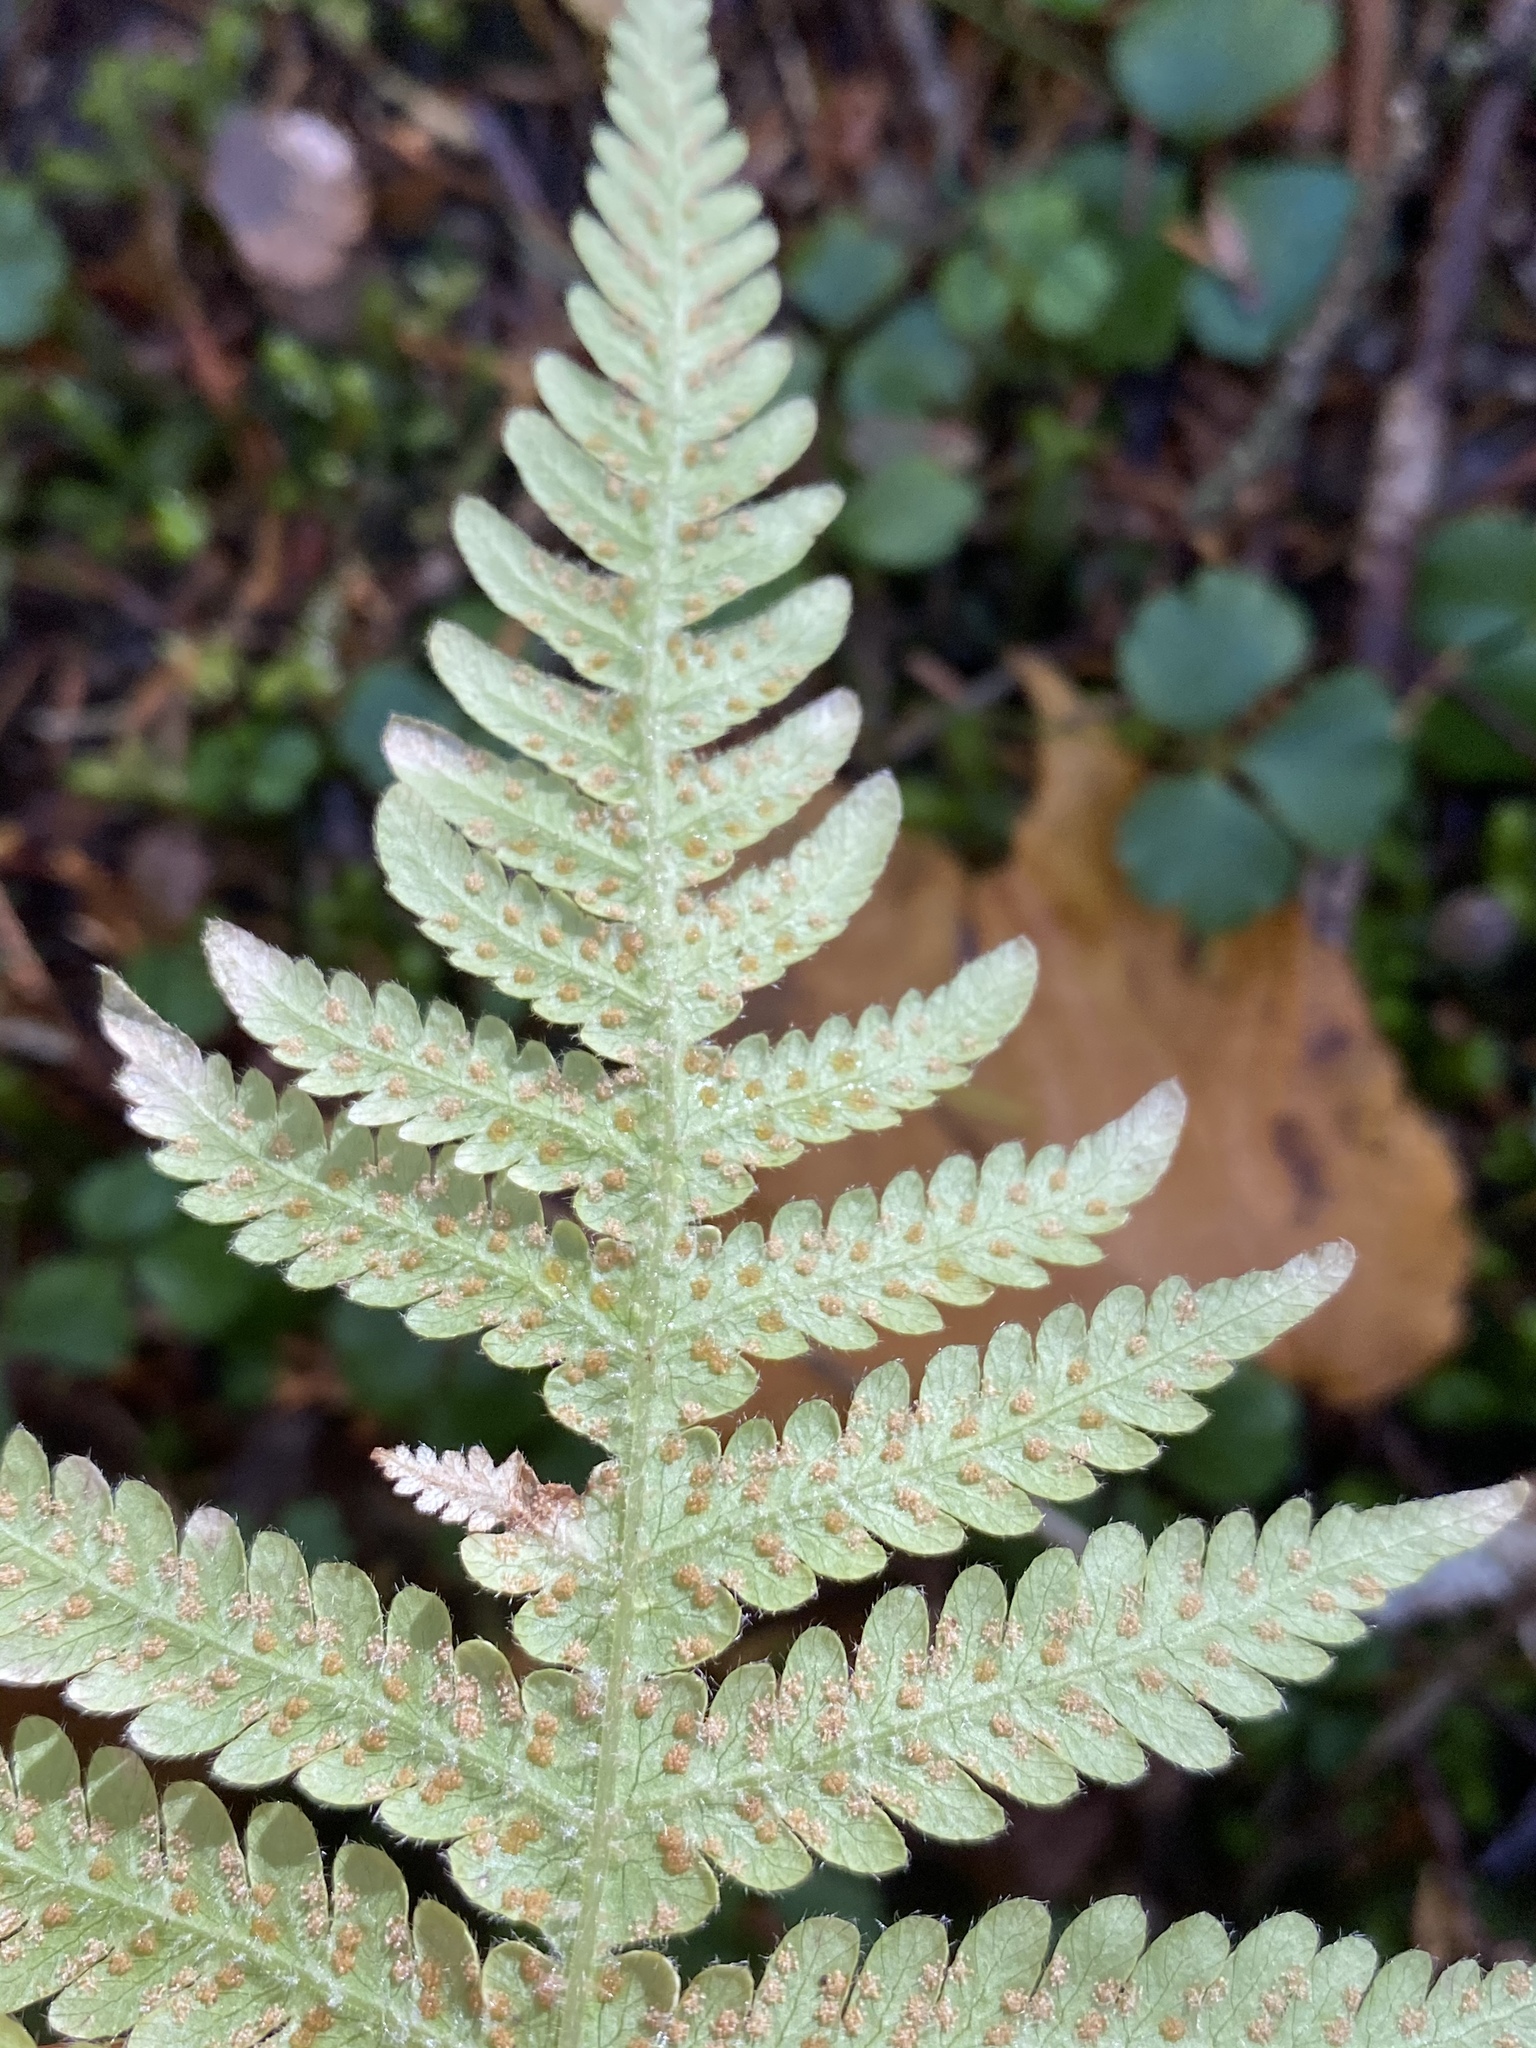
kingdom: Plantae
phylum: Tracheophyta
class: Polypodiopsida
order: Polypodiales
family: Thelypteridaceae
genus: Phegopteris
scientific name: Phegopteris connectilis
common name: Beech fern
